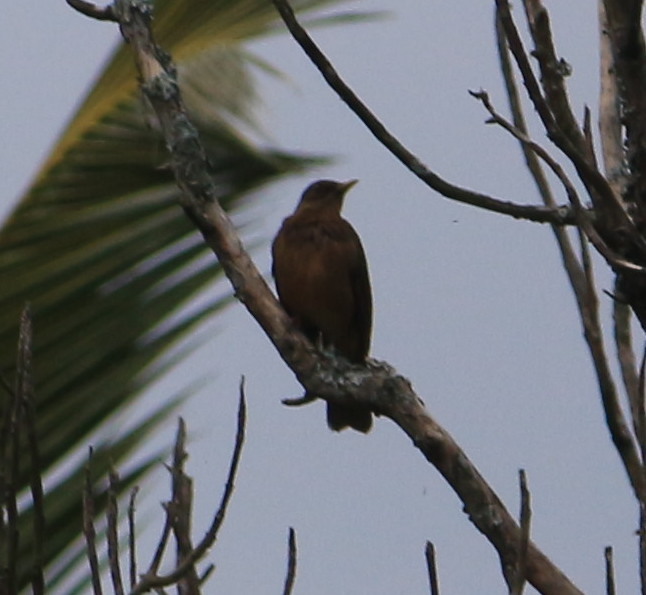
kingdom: Animalia
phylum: Chordata
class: Aves
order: Passeriformes
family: Turdidae
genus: Turdus
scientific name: Turdus grayi
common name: Clay-colored thrush
